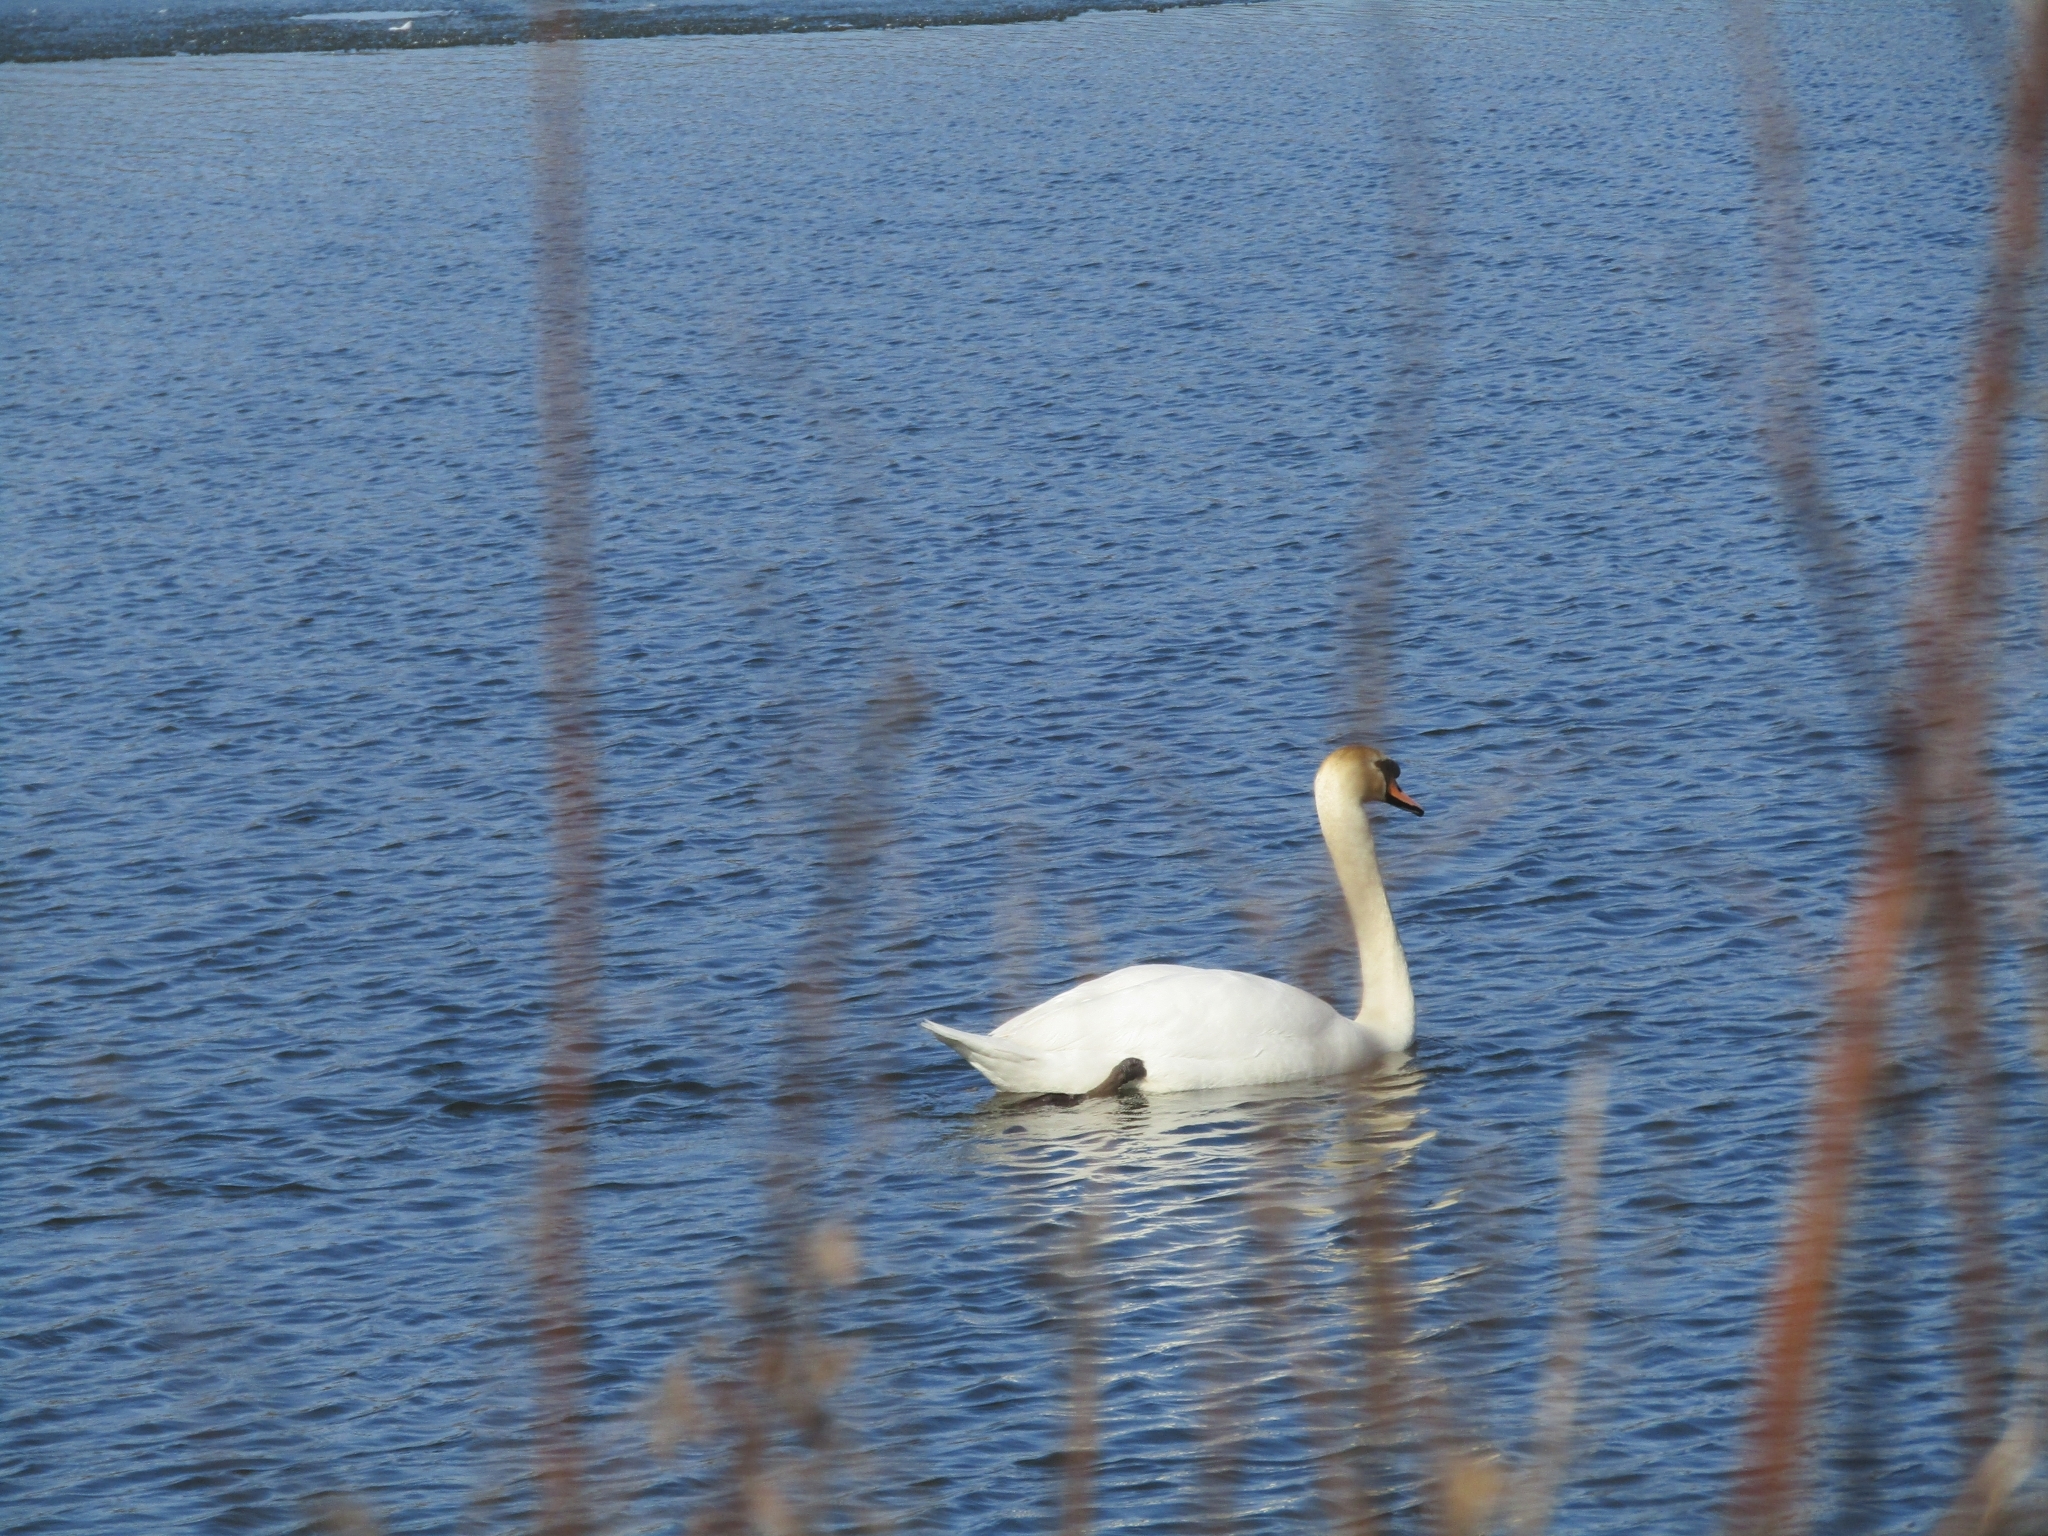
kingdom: Animalia
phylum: Chordata
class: Aves
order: Anseriformes
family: Anatidae
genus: Cygnus
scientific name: Cygnus olor
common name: Mute swan
